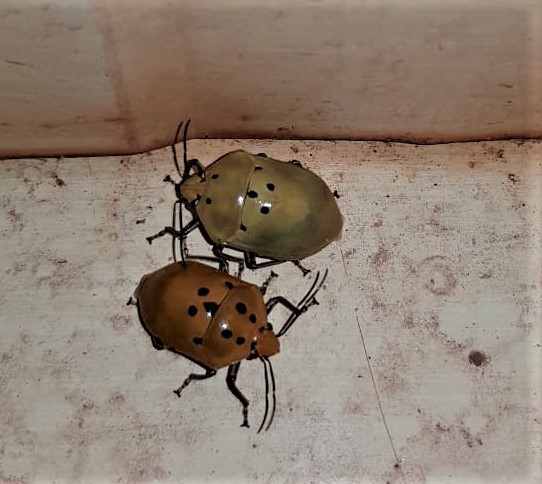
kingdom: Animalia
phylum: Arthropoda
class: Insecta
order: Hemiptera
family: Scutelleridae
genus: Augocoris
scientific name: Augocoris gomesii
